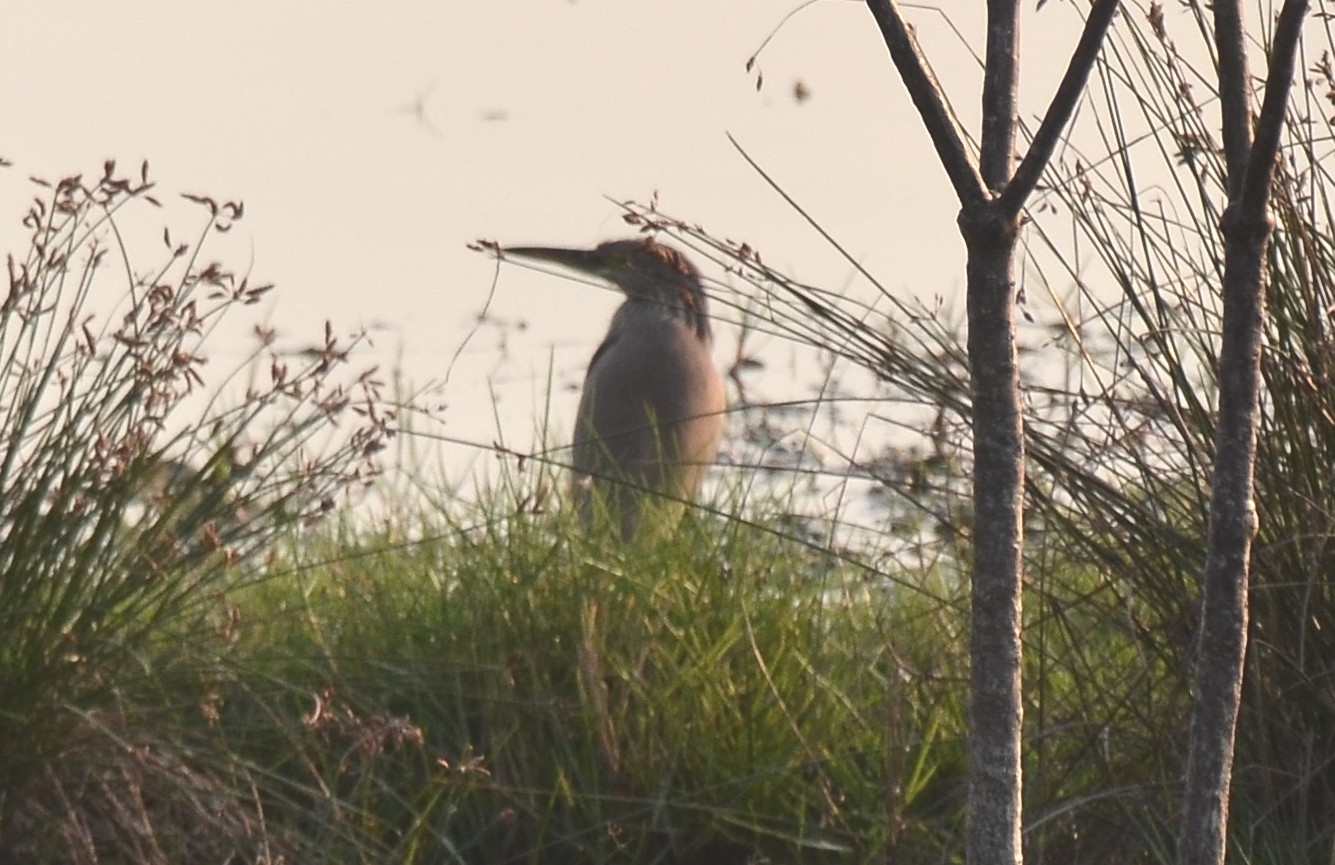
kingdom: Animalia
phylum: Chordata
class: Aves
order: Pelecaniformes
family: Ardeidae
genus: Ardeola
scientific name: Ardeola grayii
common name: Indian pond heron
